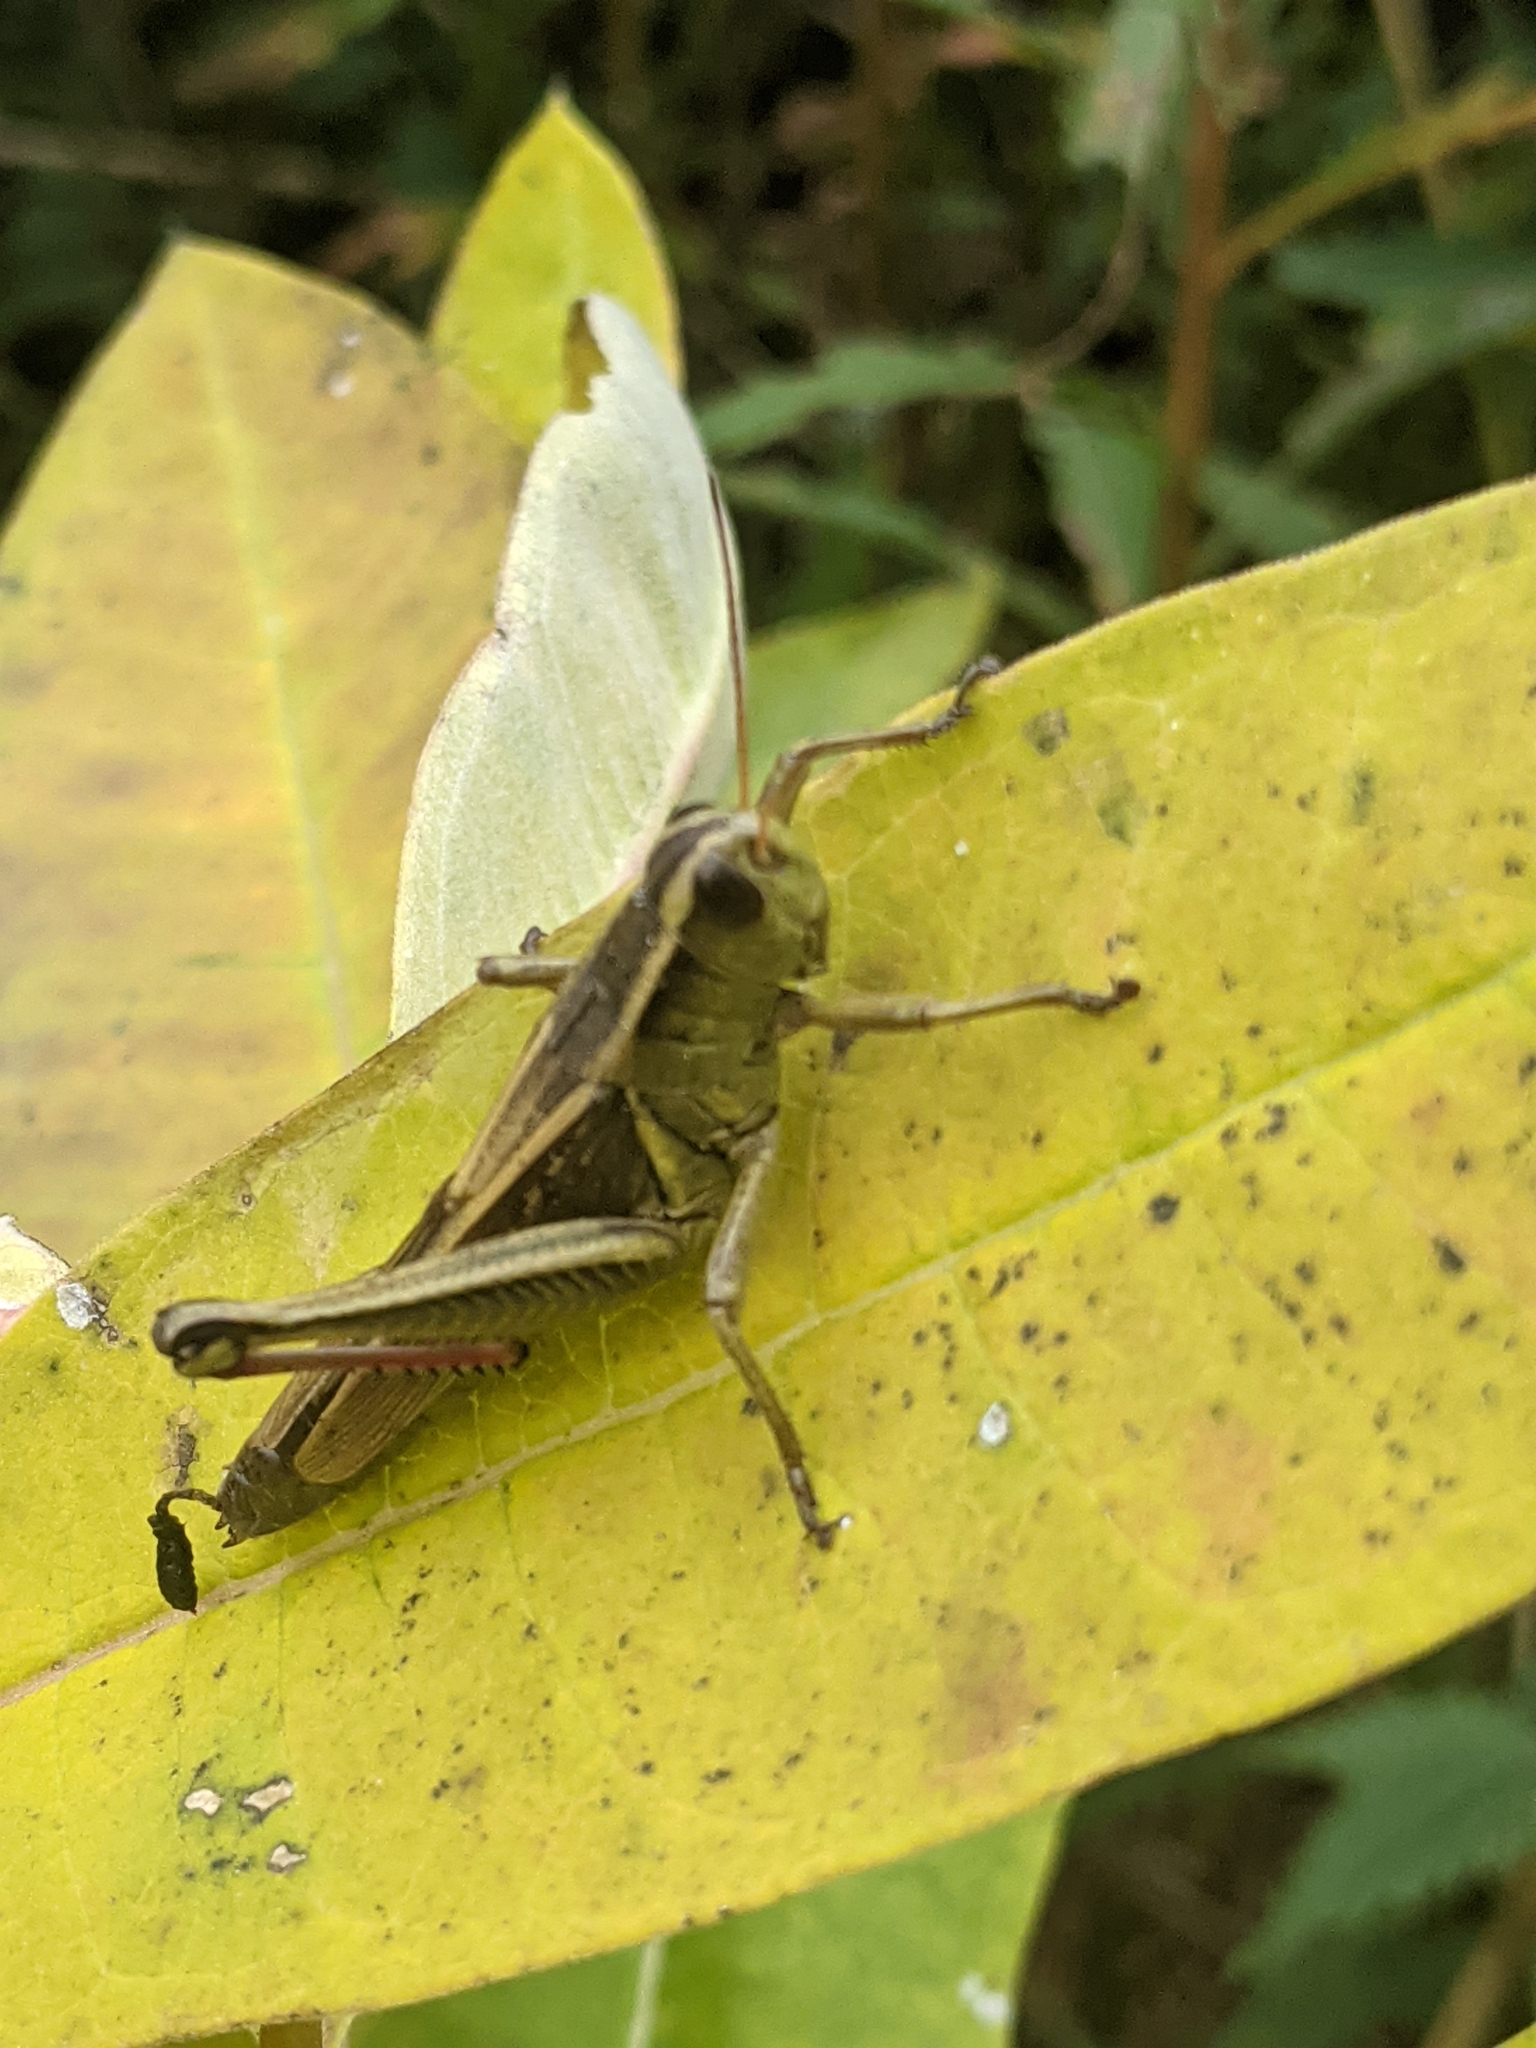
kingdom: Animalia
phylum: Arthropoda
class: Insecta
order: Orthoptera
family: Acrididae
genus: Melanoplus
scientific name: Melanoplus bivittatus
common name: Two-striped grasshopper
